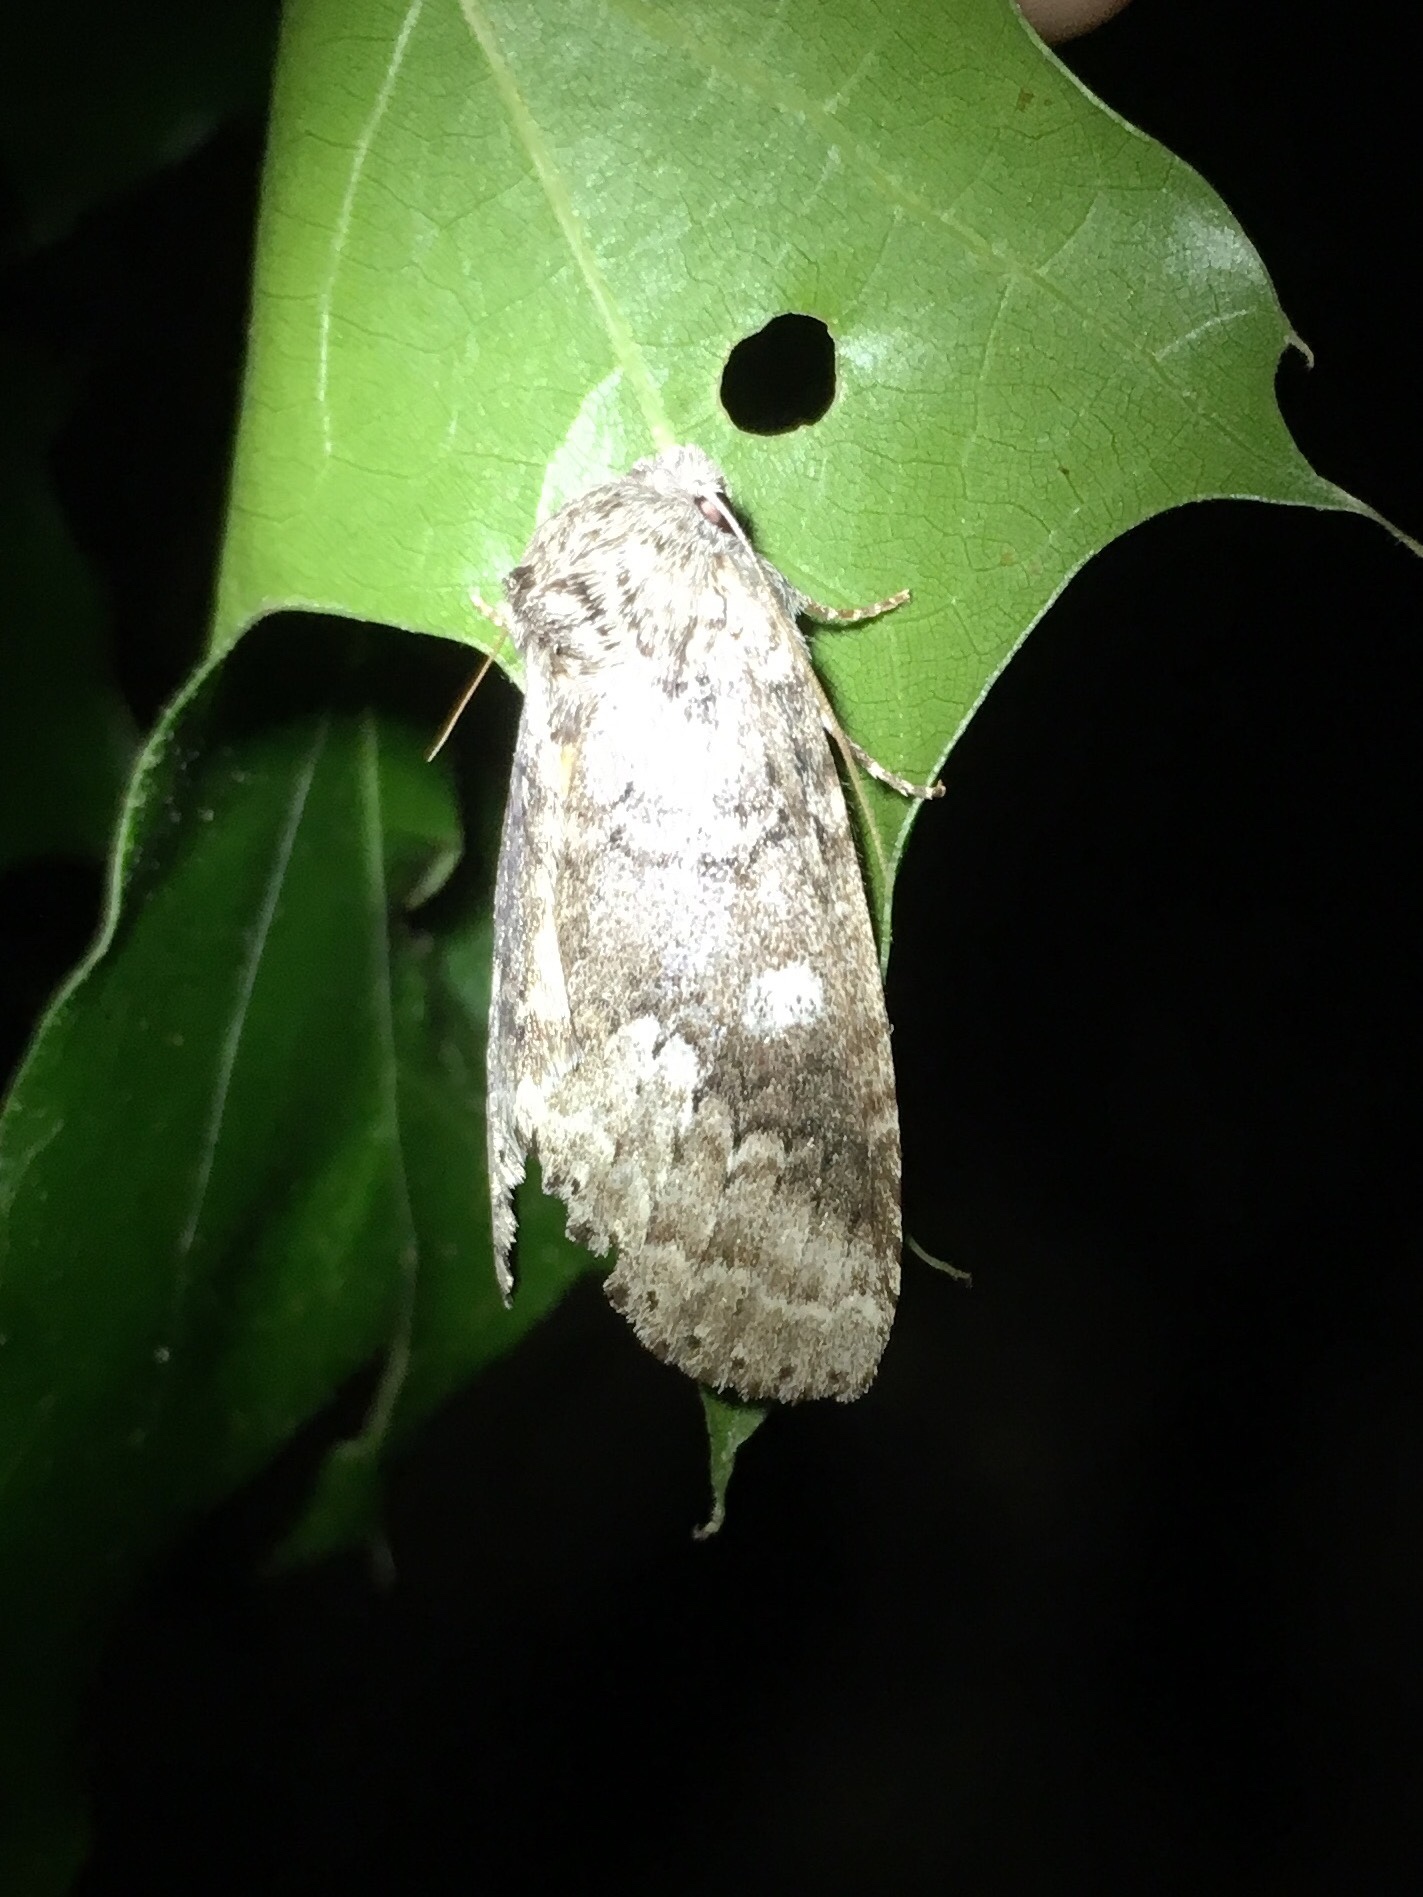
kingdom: Animalia
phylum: Arthropoda
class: Insecta
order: Lepidoptera
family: Notodontidae
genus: Lochmaeus
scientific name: Lochmaeus manteo
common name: Variable oakleaf caterpillar moth
